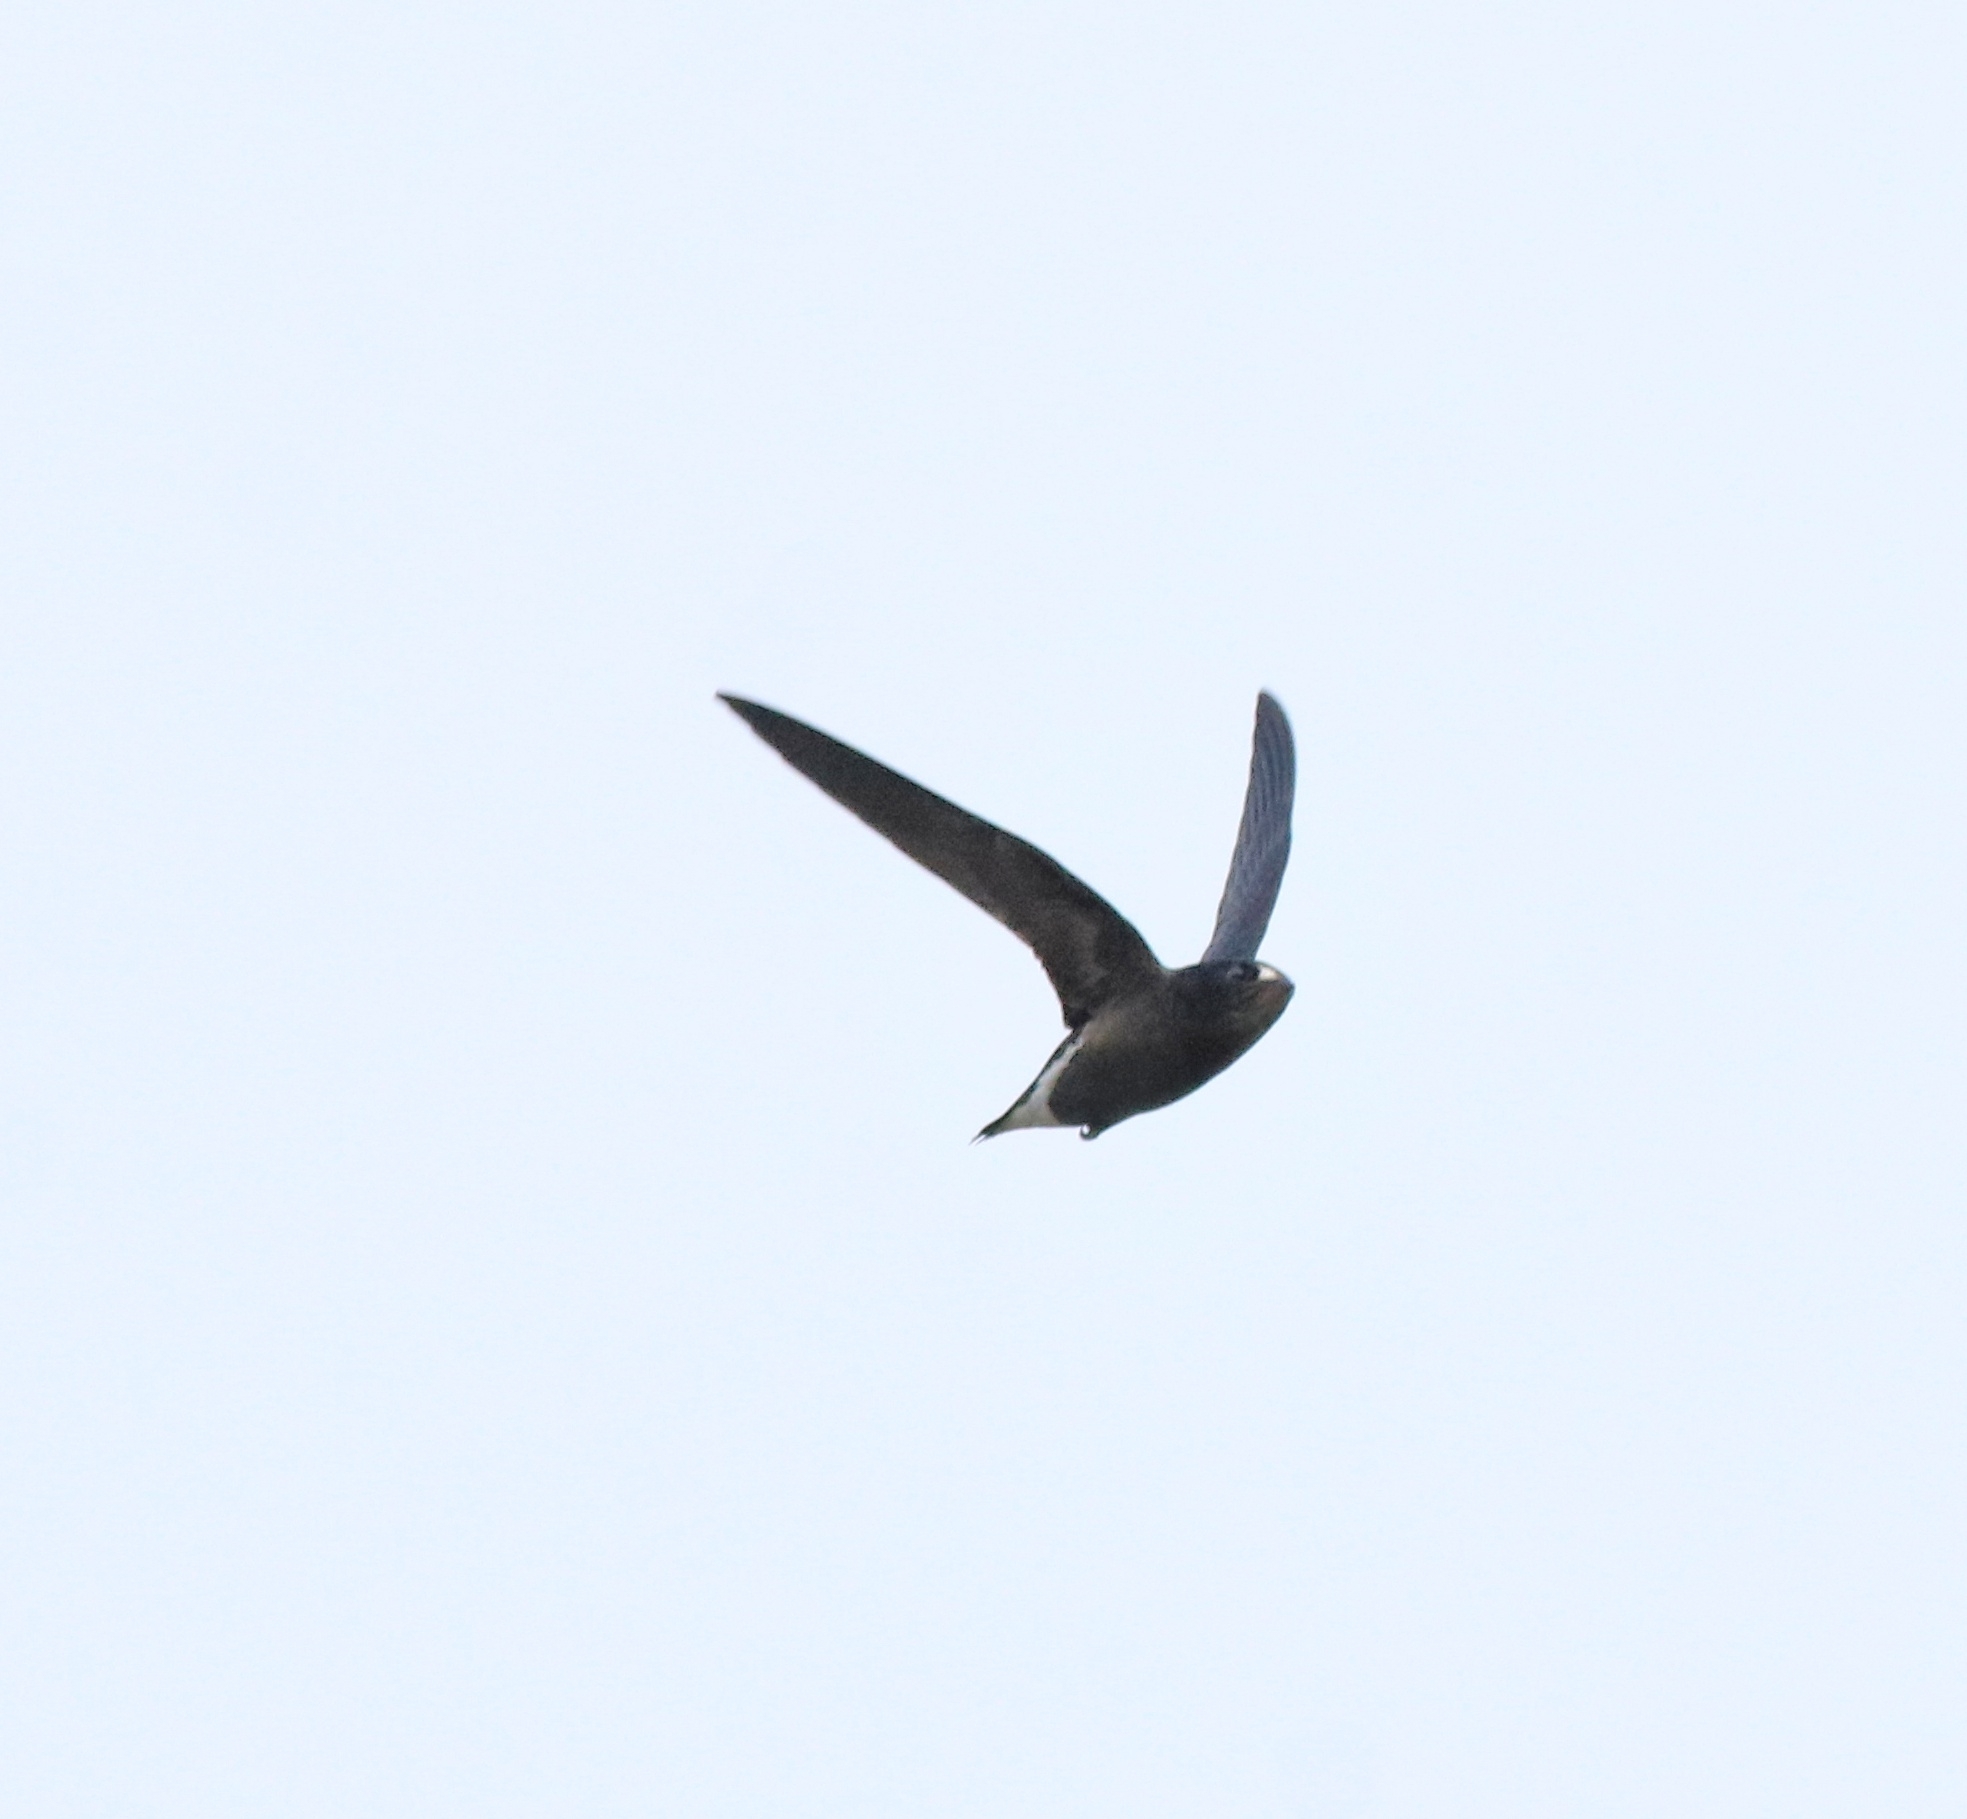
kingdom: Animalia
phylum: Chordata
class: Aves
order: Apodiformes
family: Apodidae
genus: Hirundapus
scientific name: Hirundapus giganteus
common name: Brown-backed needletail
